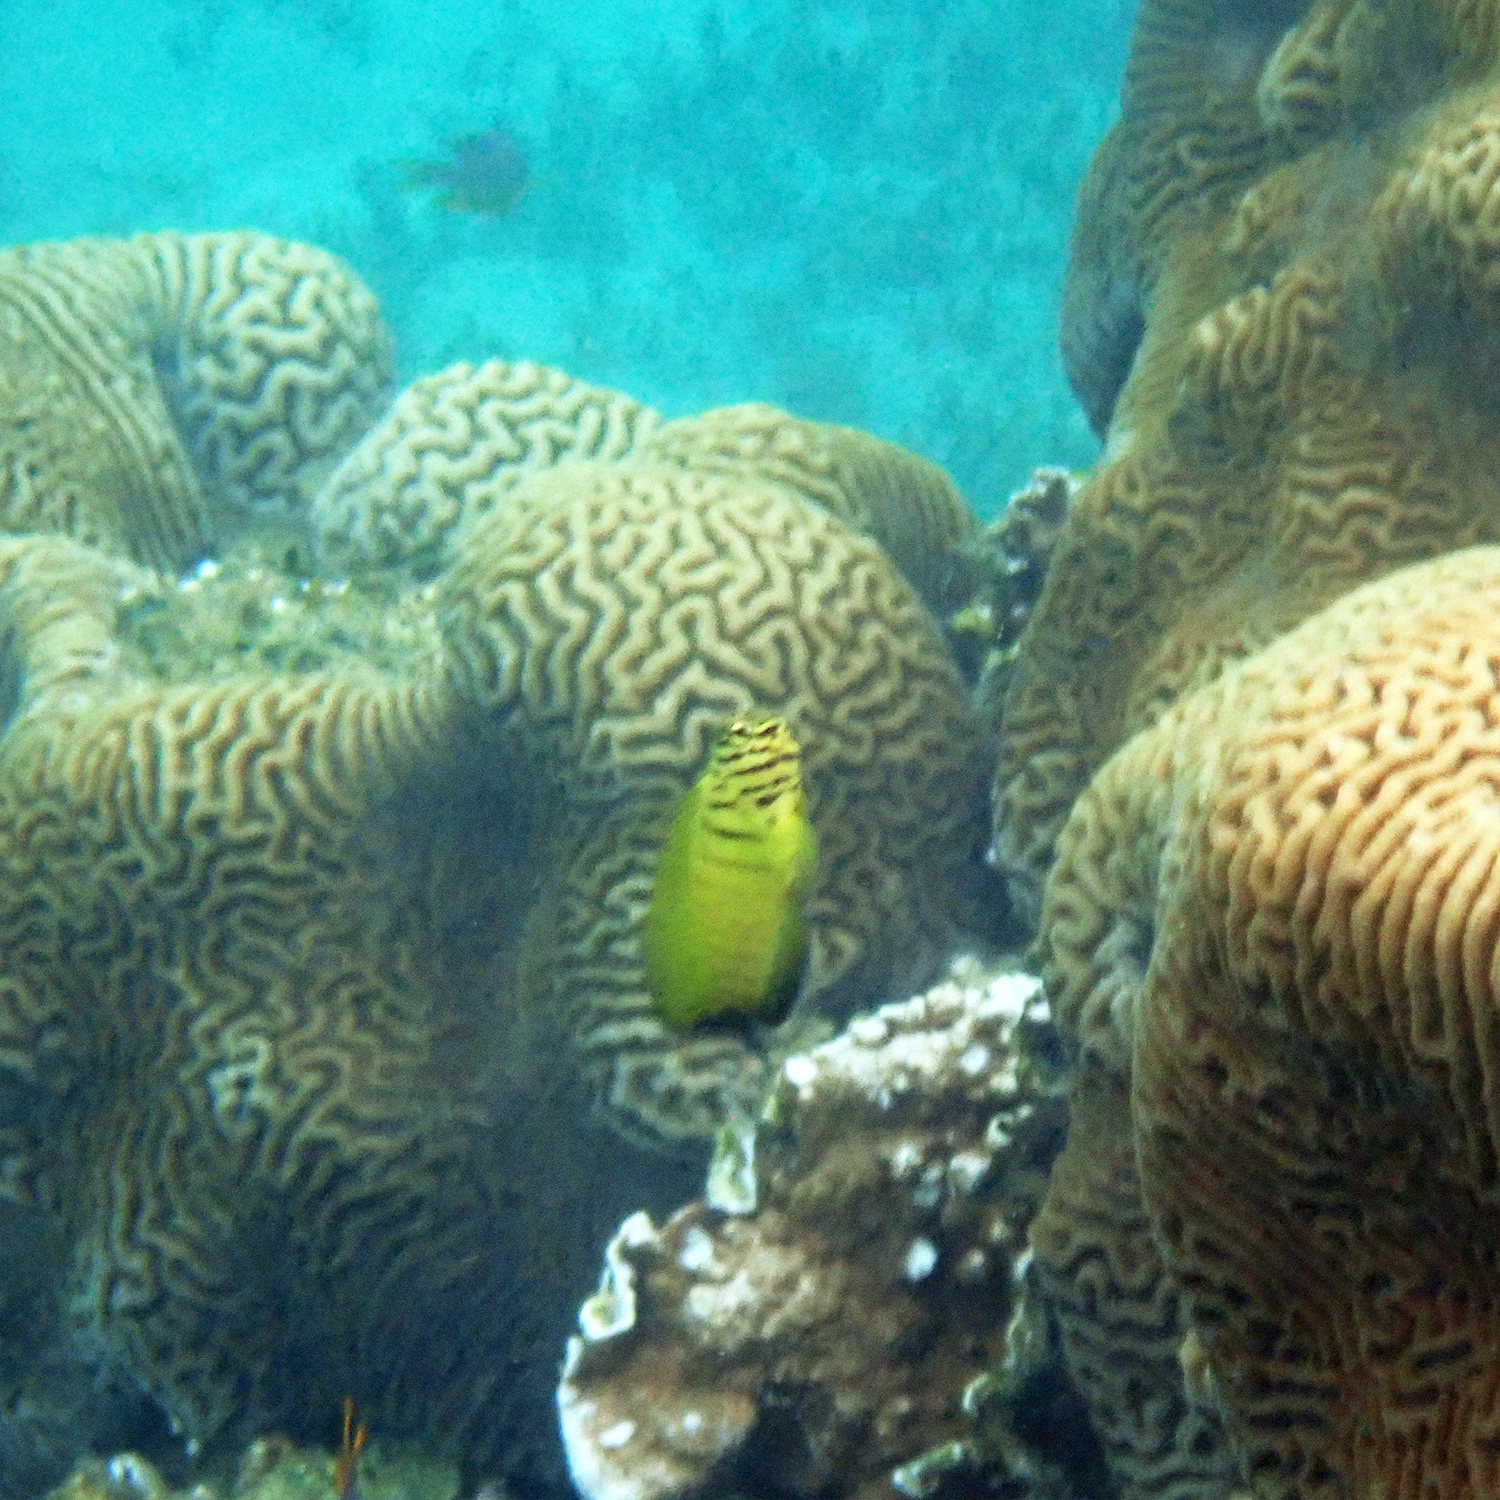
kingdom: Animalia
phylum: Chordata
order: Perciformes
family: Blenniidae
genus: Cirripectes
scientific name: Cirripectes castaneus
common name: Chestnut blenny
